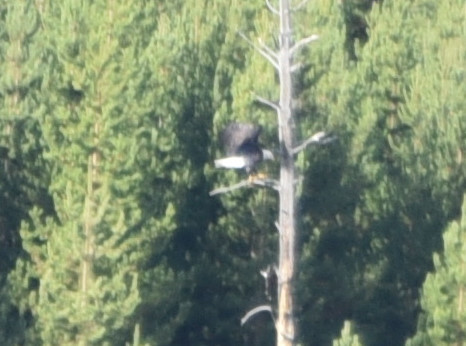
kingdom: Animalia
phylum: Chordata
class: Aves
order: Accipitriformes
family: Accipitridae
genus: Haliaeetus
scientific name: Haliaeetus leucocephalus
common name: Bald eagle
